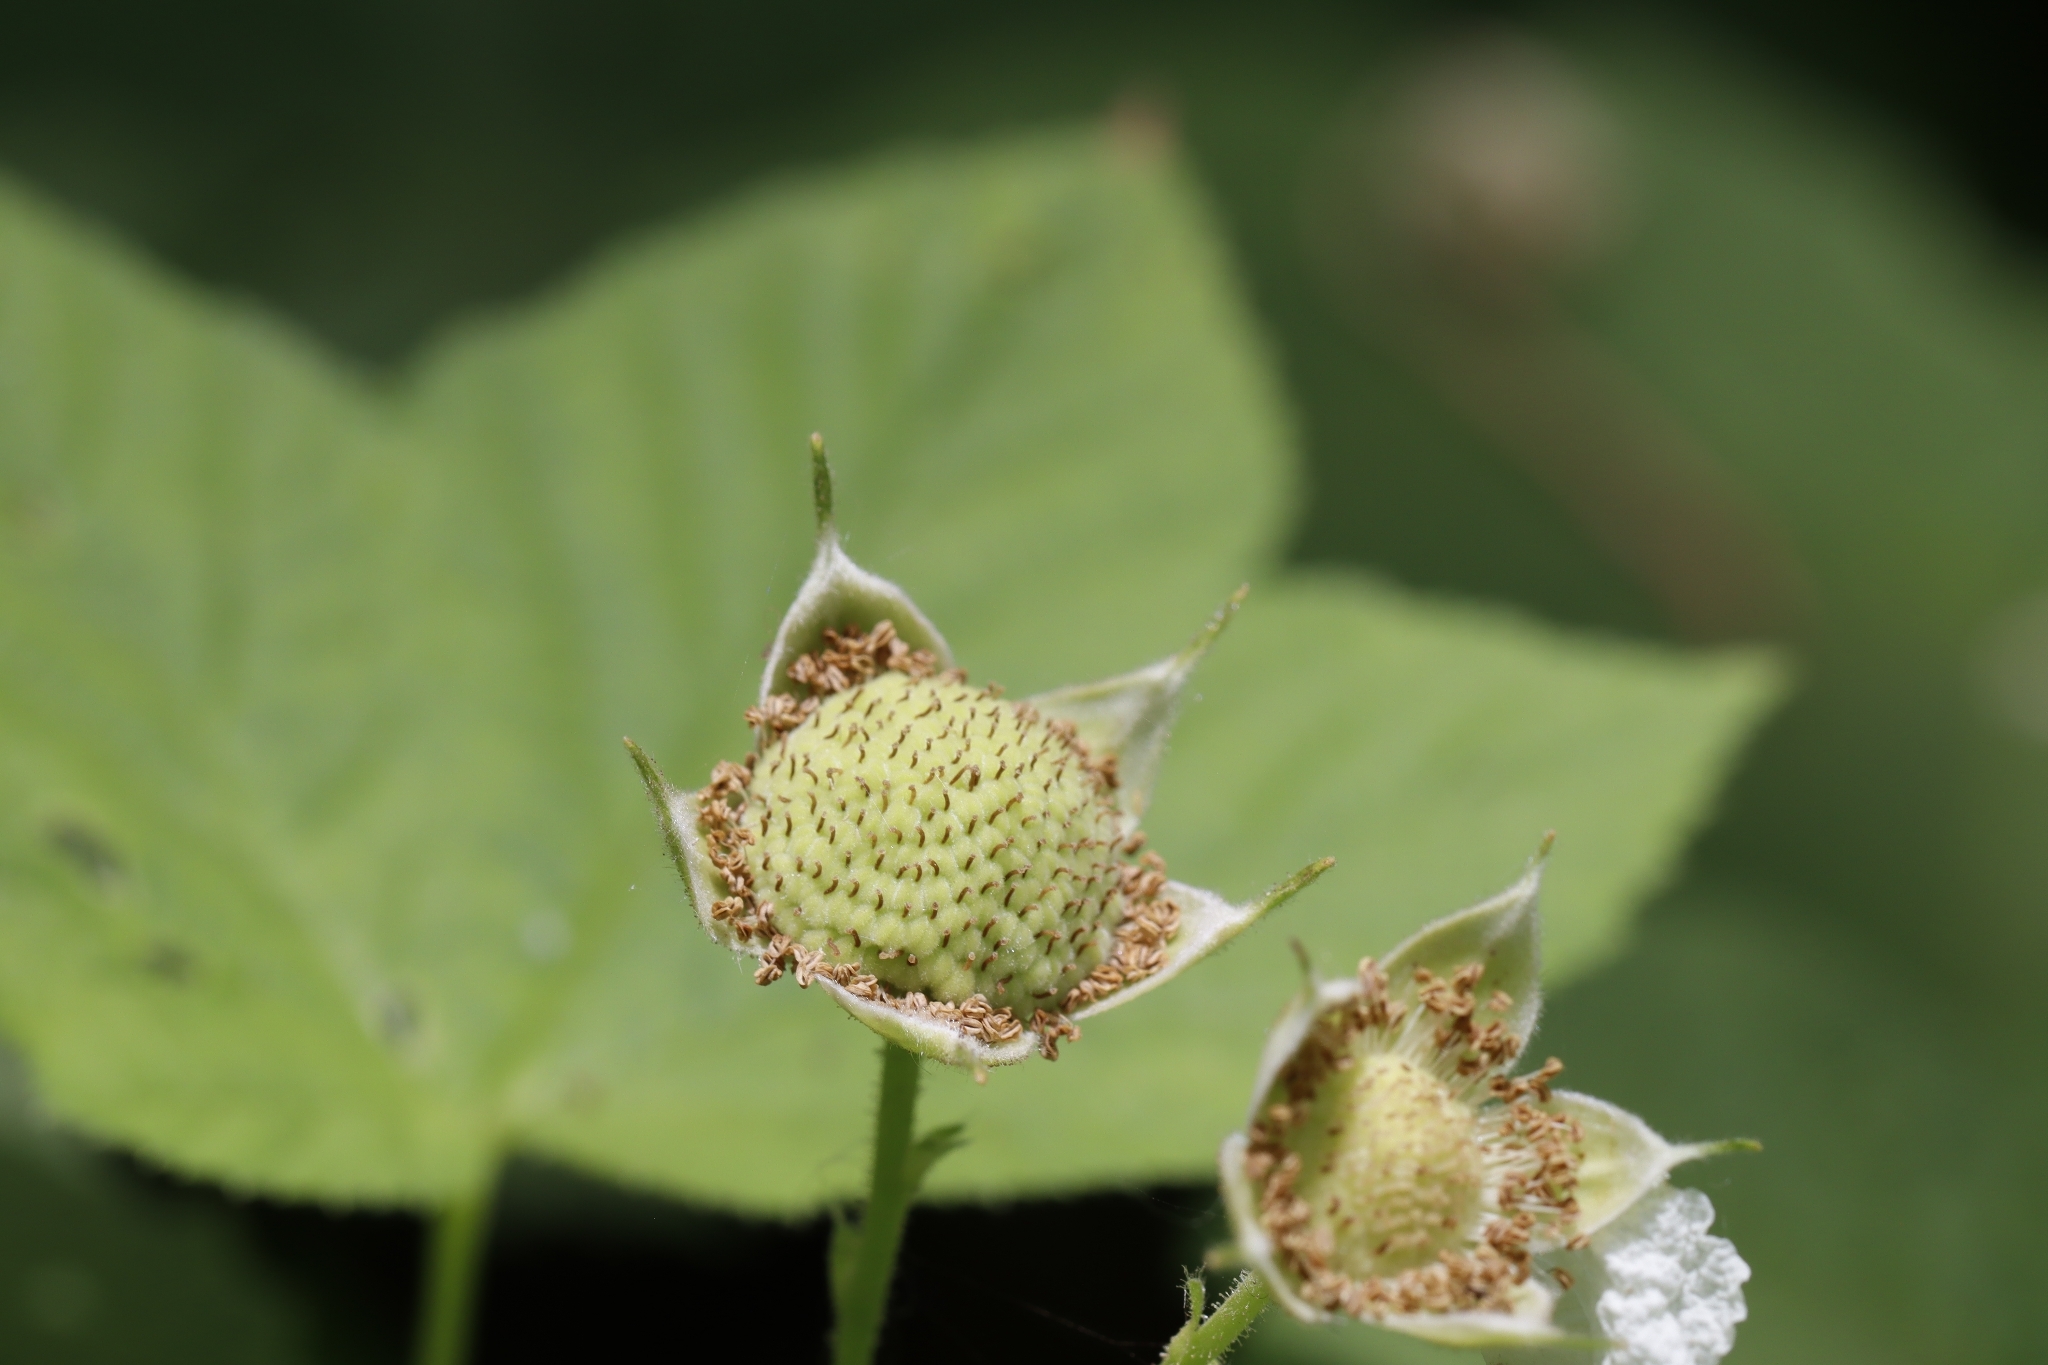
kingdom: Plantae
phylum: Tracheophyta
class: Magnoliopsida
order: Rosales
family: Rosaceae
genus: Rubus
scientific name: Rubus parviflorus
